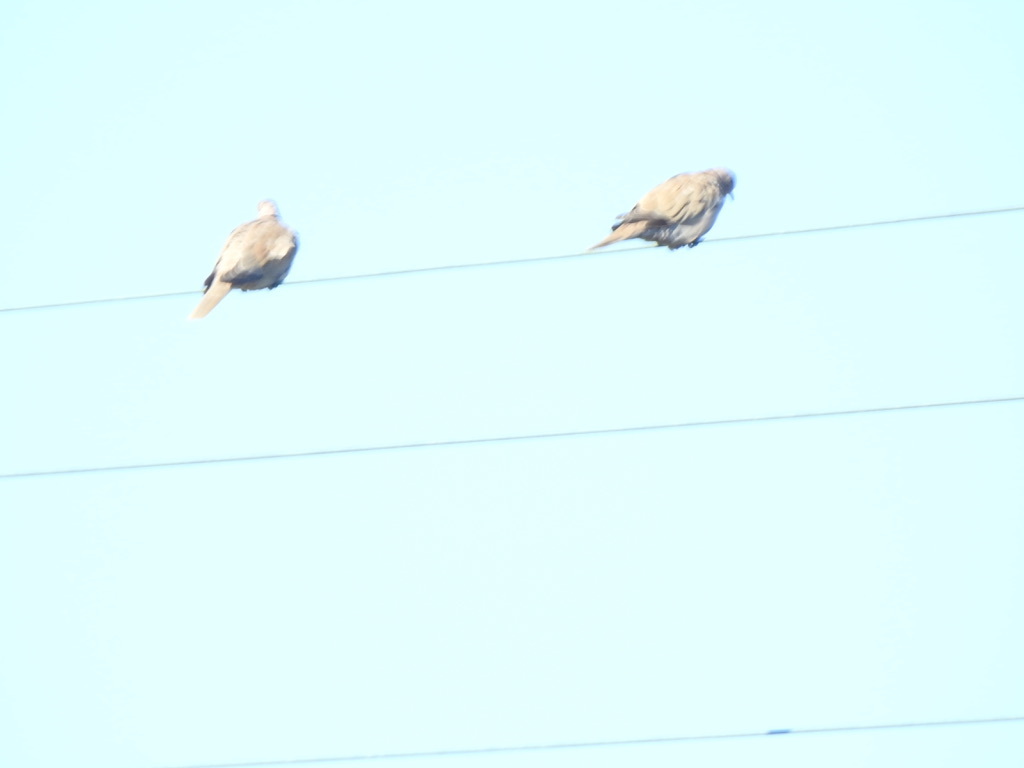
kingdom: Animalia
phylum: Chordata
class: Aves
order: Columbiformes
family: Columbidae
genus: Zenaida
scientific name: Zenaida macroura
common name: Mourning dove
